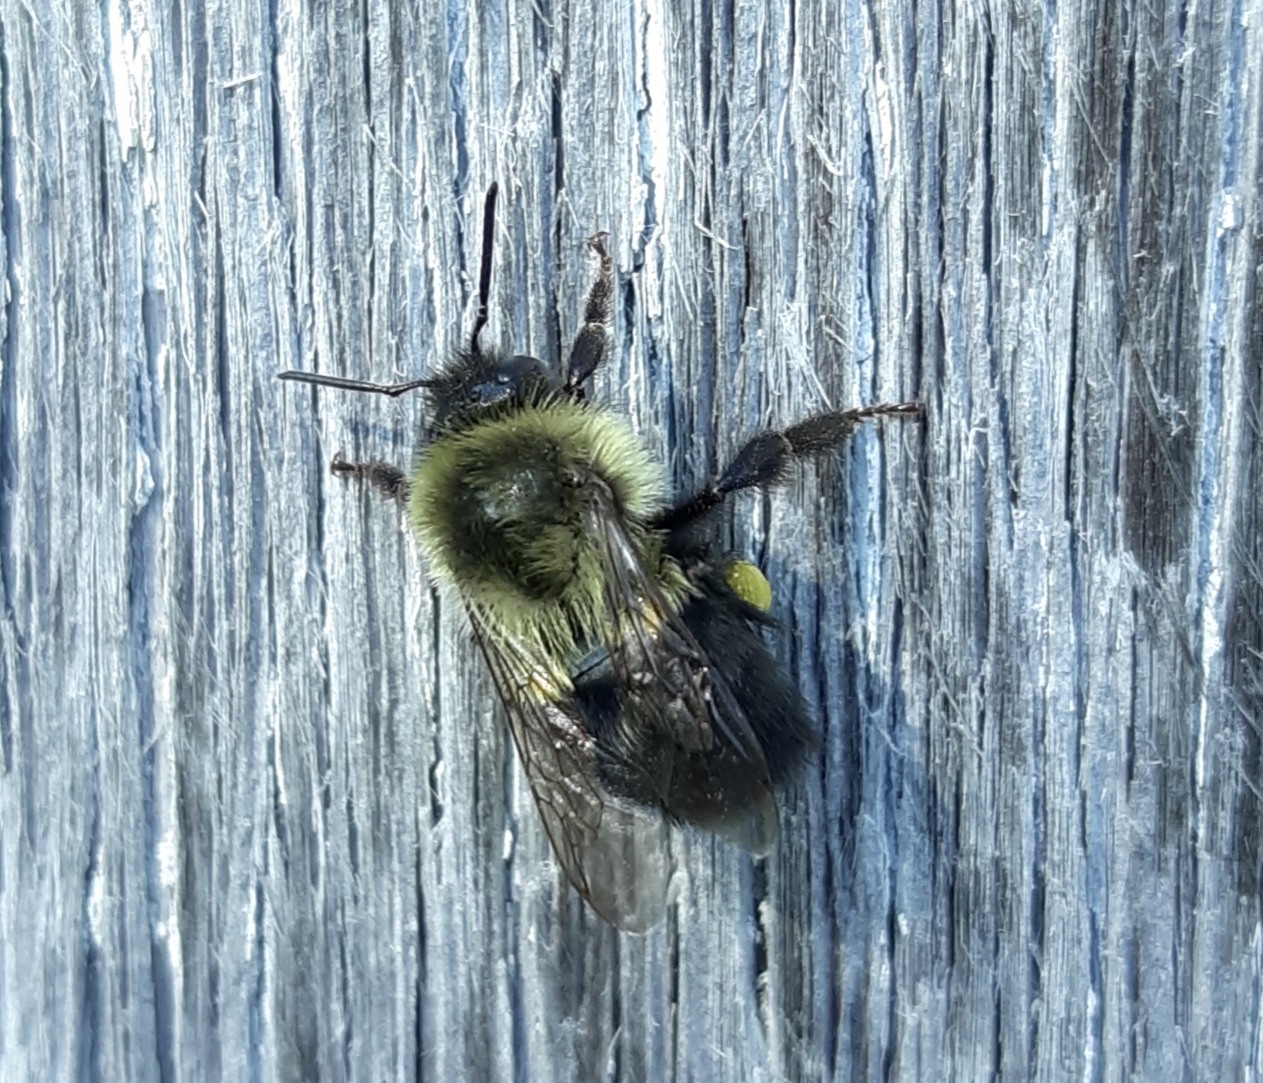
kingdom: Animalia
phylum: Arthropoda
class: Insecta
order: Hymenoptera
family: Apidae
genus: Bombus
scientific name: Bombus impatiens
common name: Common eastern bumble bee
